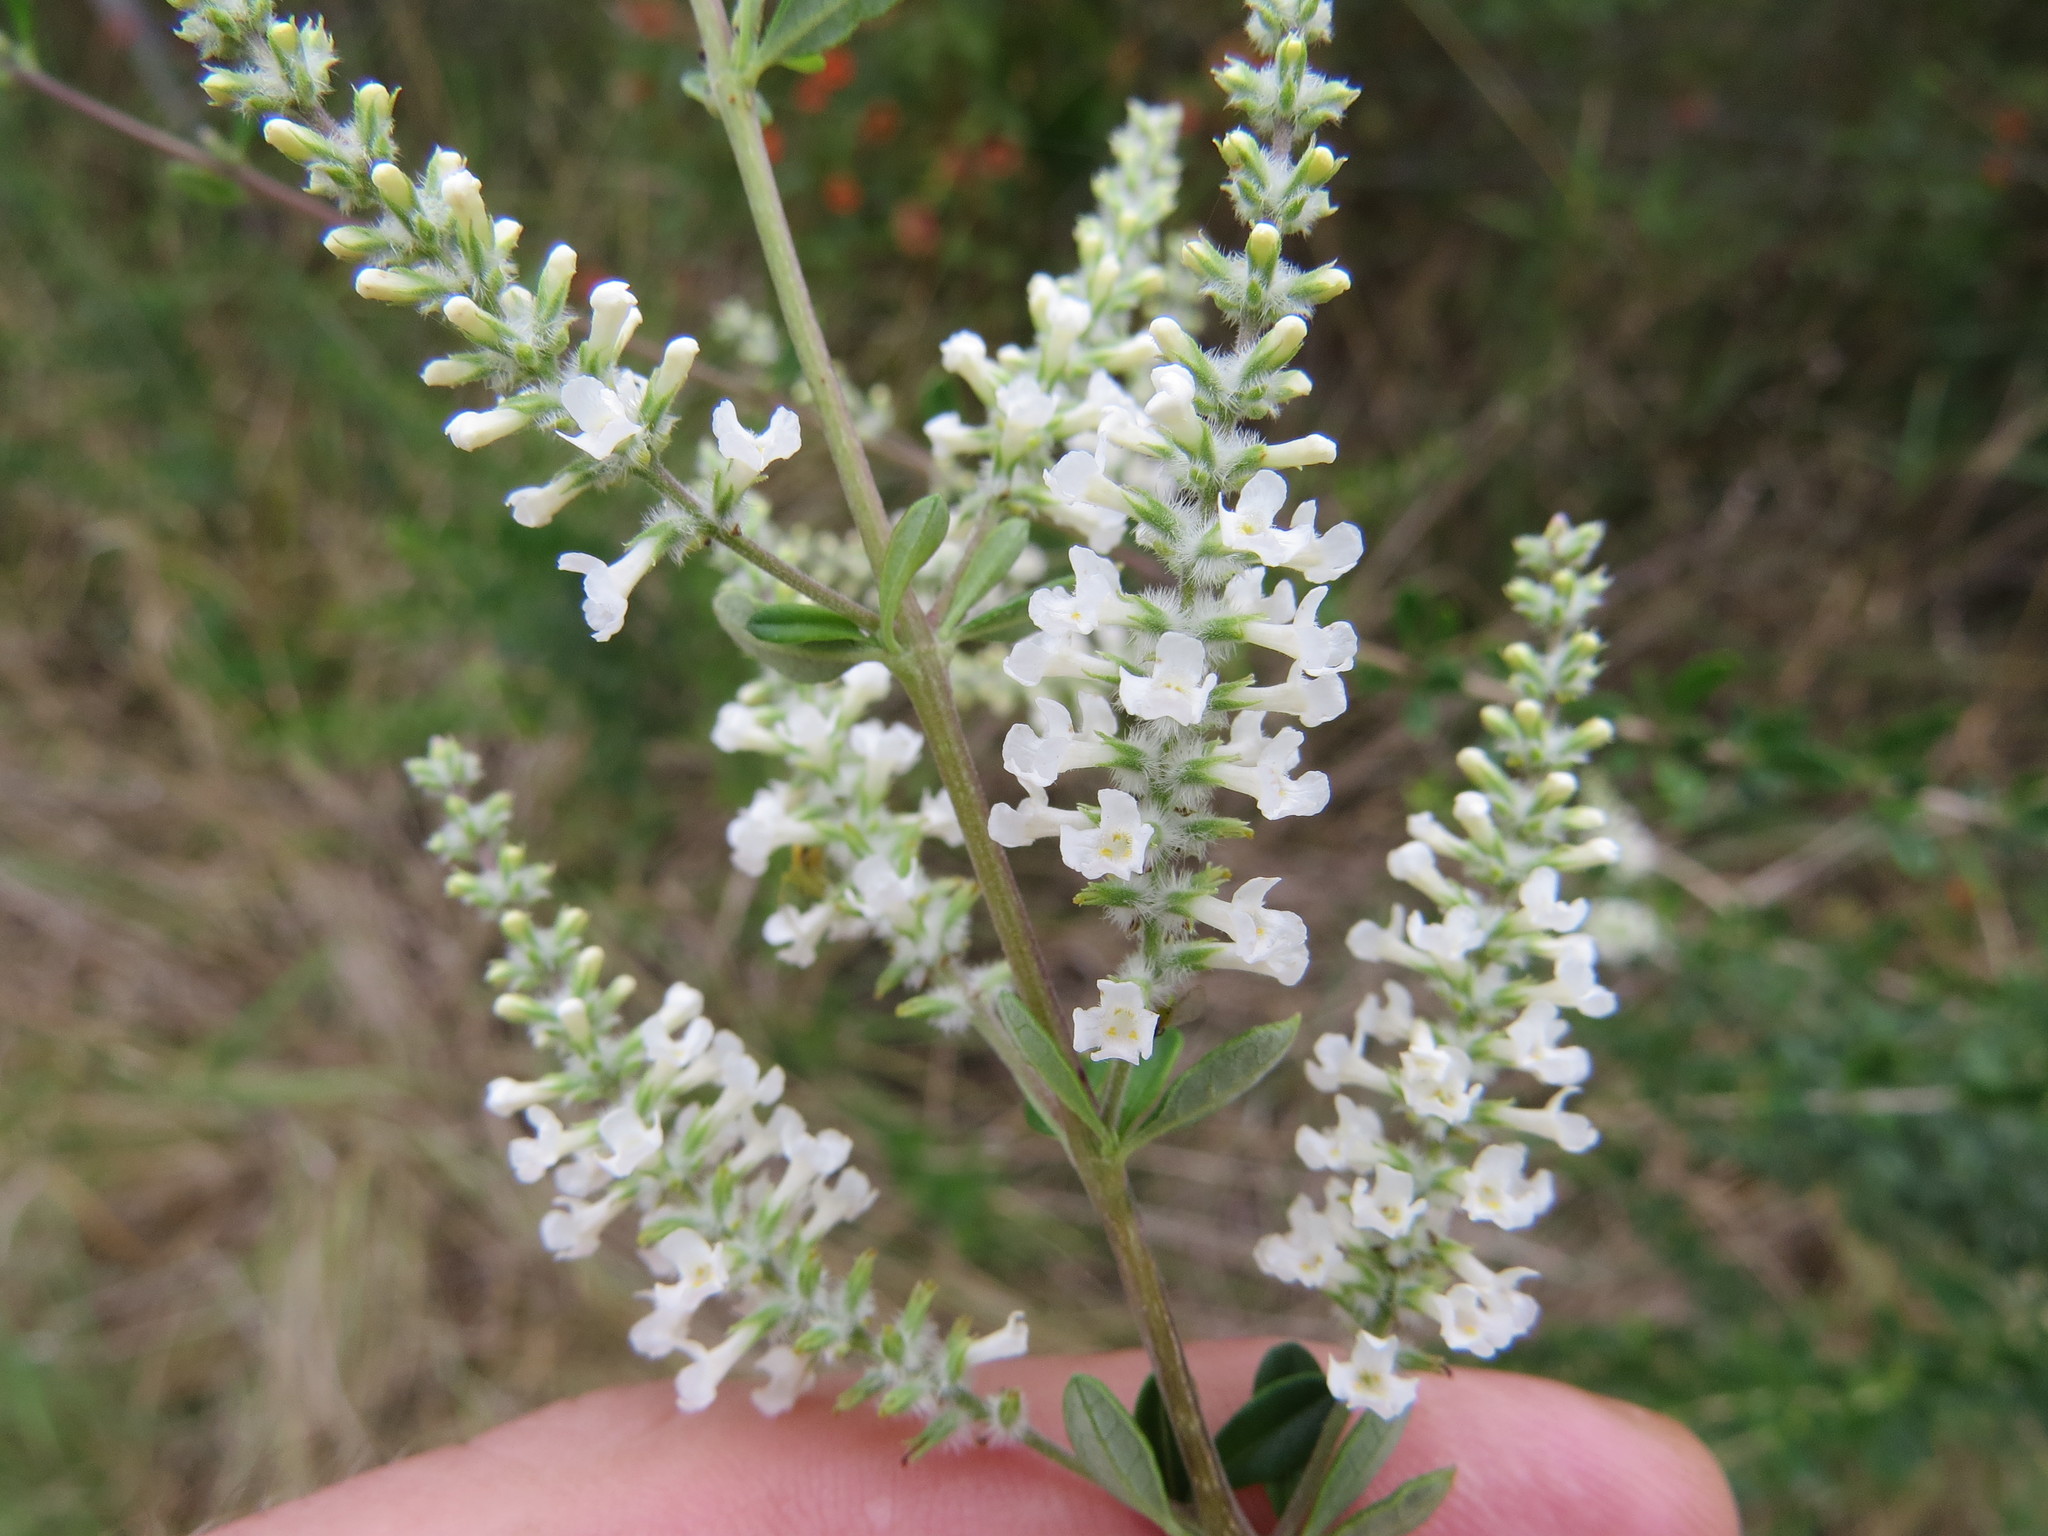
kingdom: Plantae
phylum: Tracheophyta
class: Magnoliopsida
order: Lamiales
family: Verbenaceae
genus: Aloysia
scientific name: Aloysia gratissima
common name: Common bee-brush
